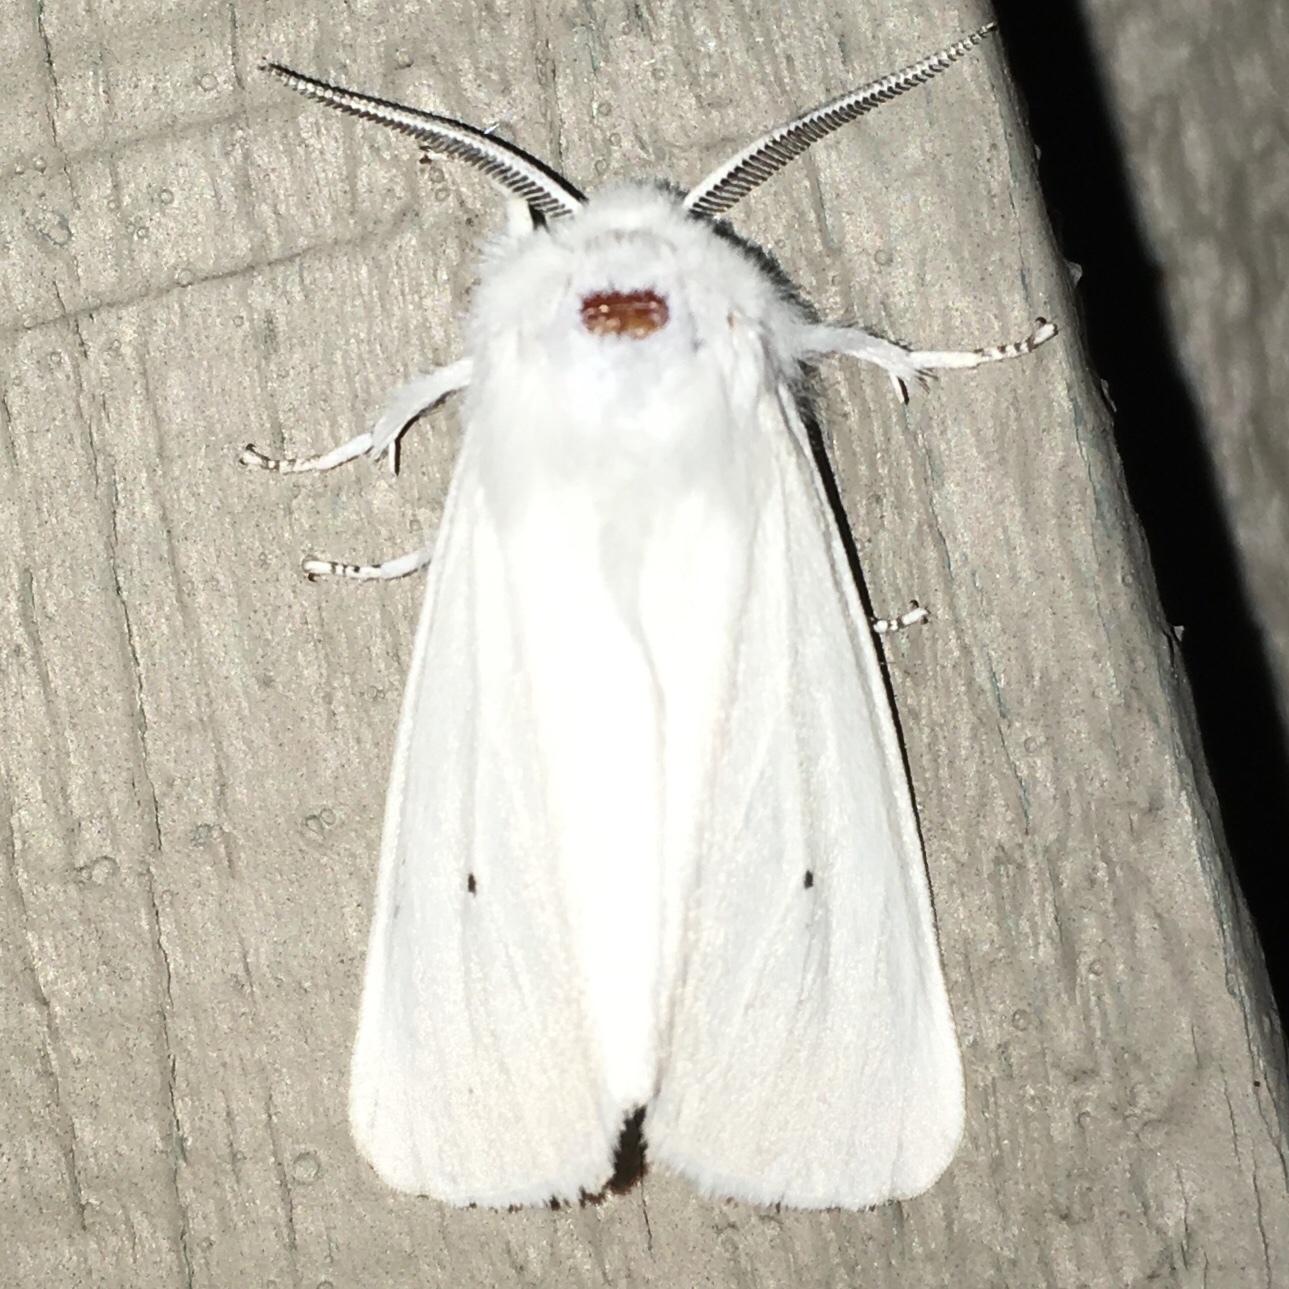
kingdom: Animalia
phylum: Arthropoda
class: Insecta
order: Lepidoptera
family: Erebidae
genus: Spilosoma
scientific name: Spilosoma virginica
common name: Virginia tiger moth
